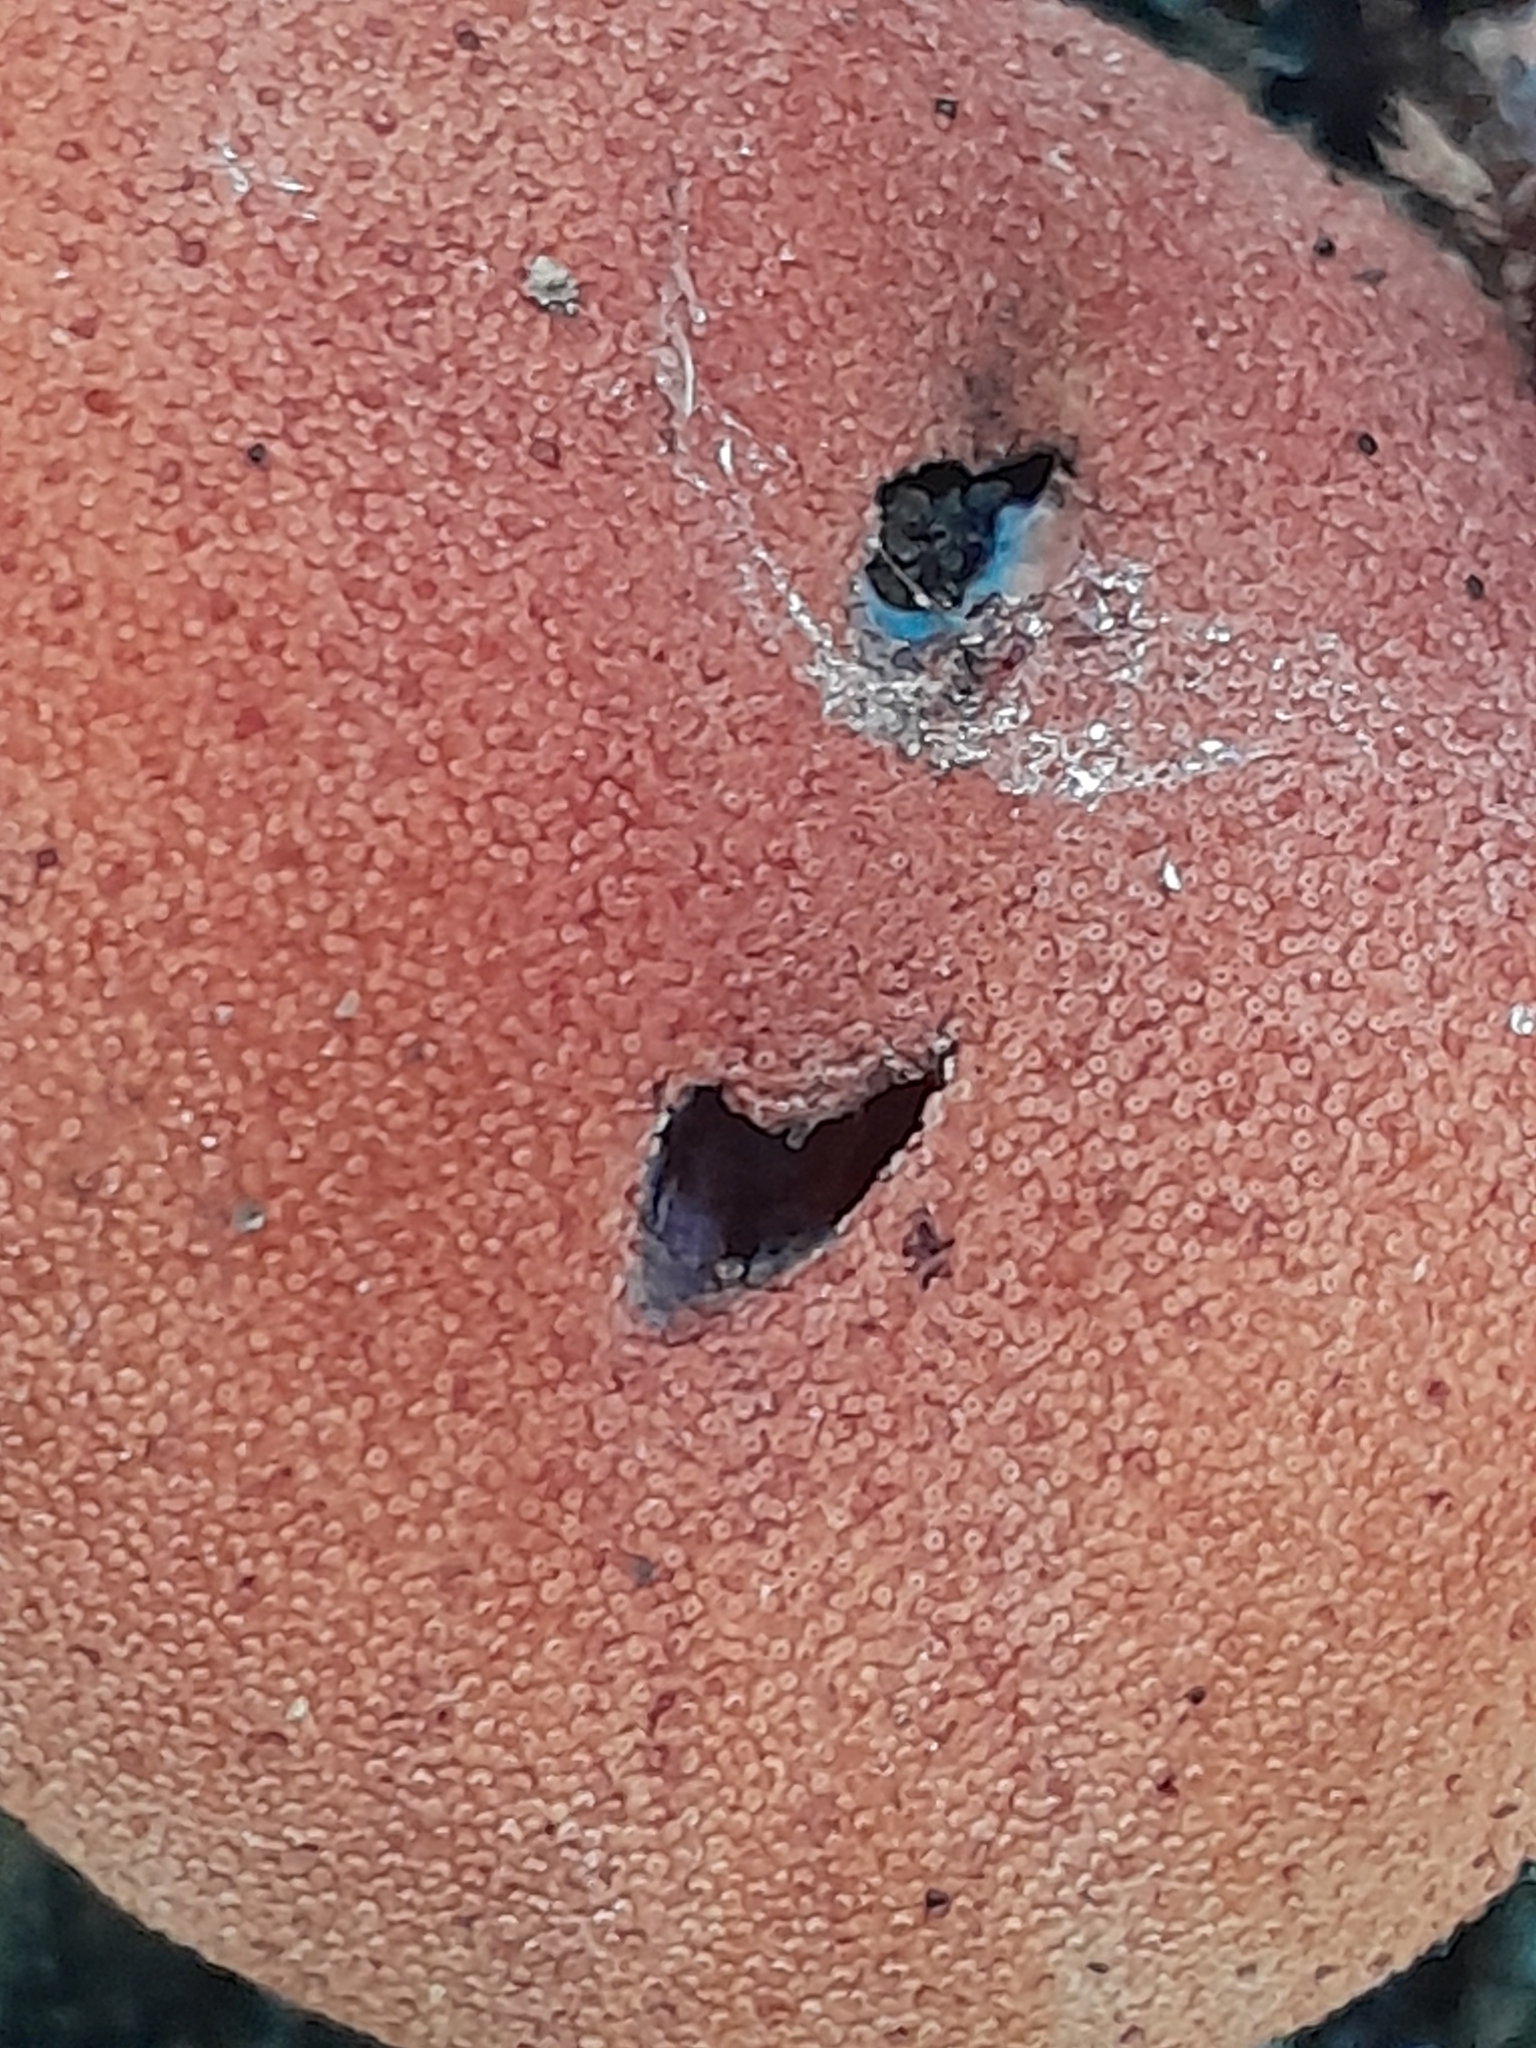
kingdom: Fungi
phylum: Basidiomycota
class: Agaricomycetes
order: Agaricales
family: Fistulinaceae
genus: Fistulina
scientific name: Fistulina hepatica
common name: Beef-steak fungus
